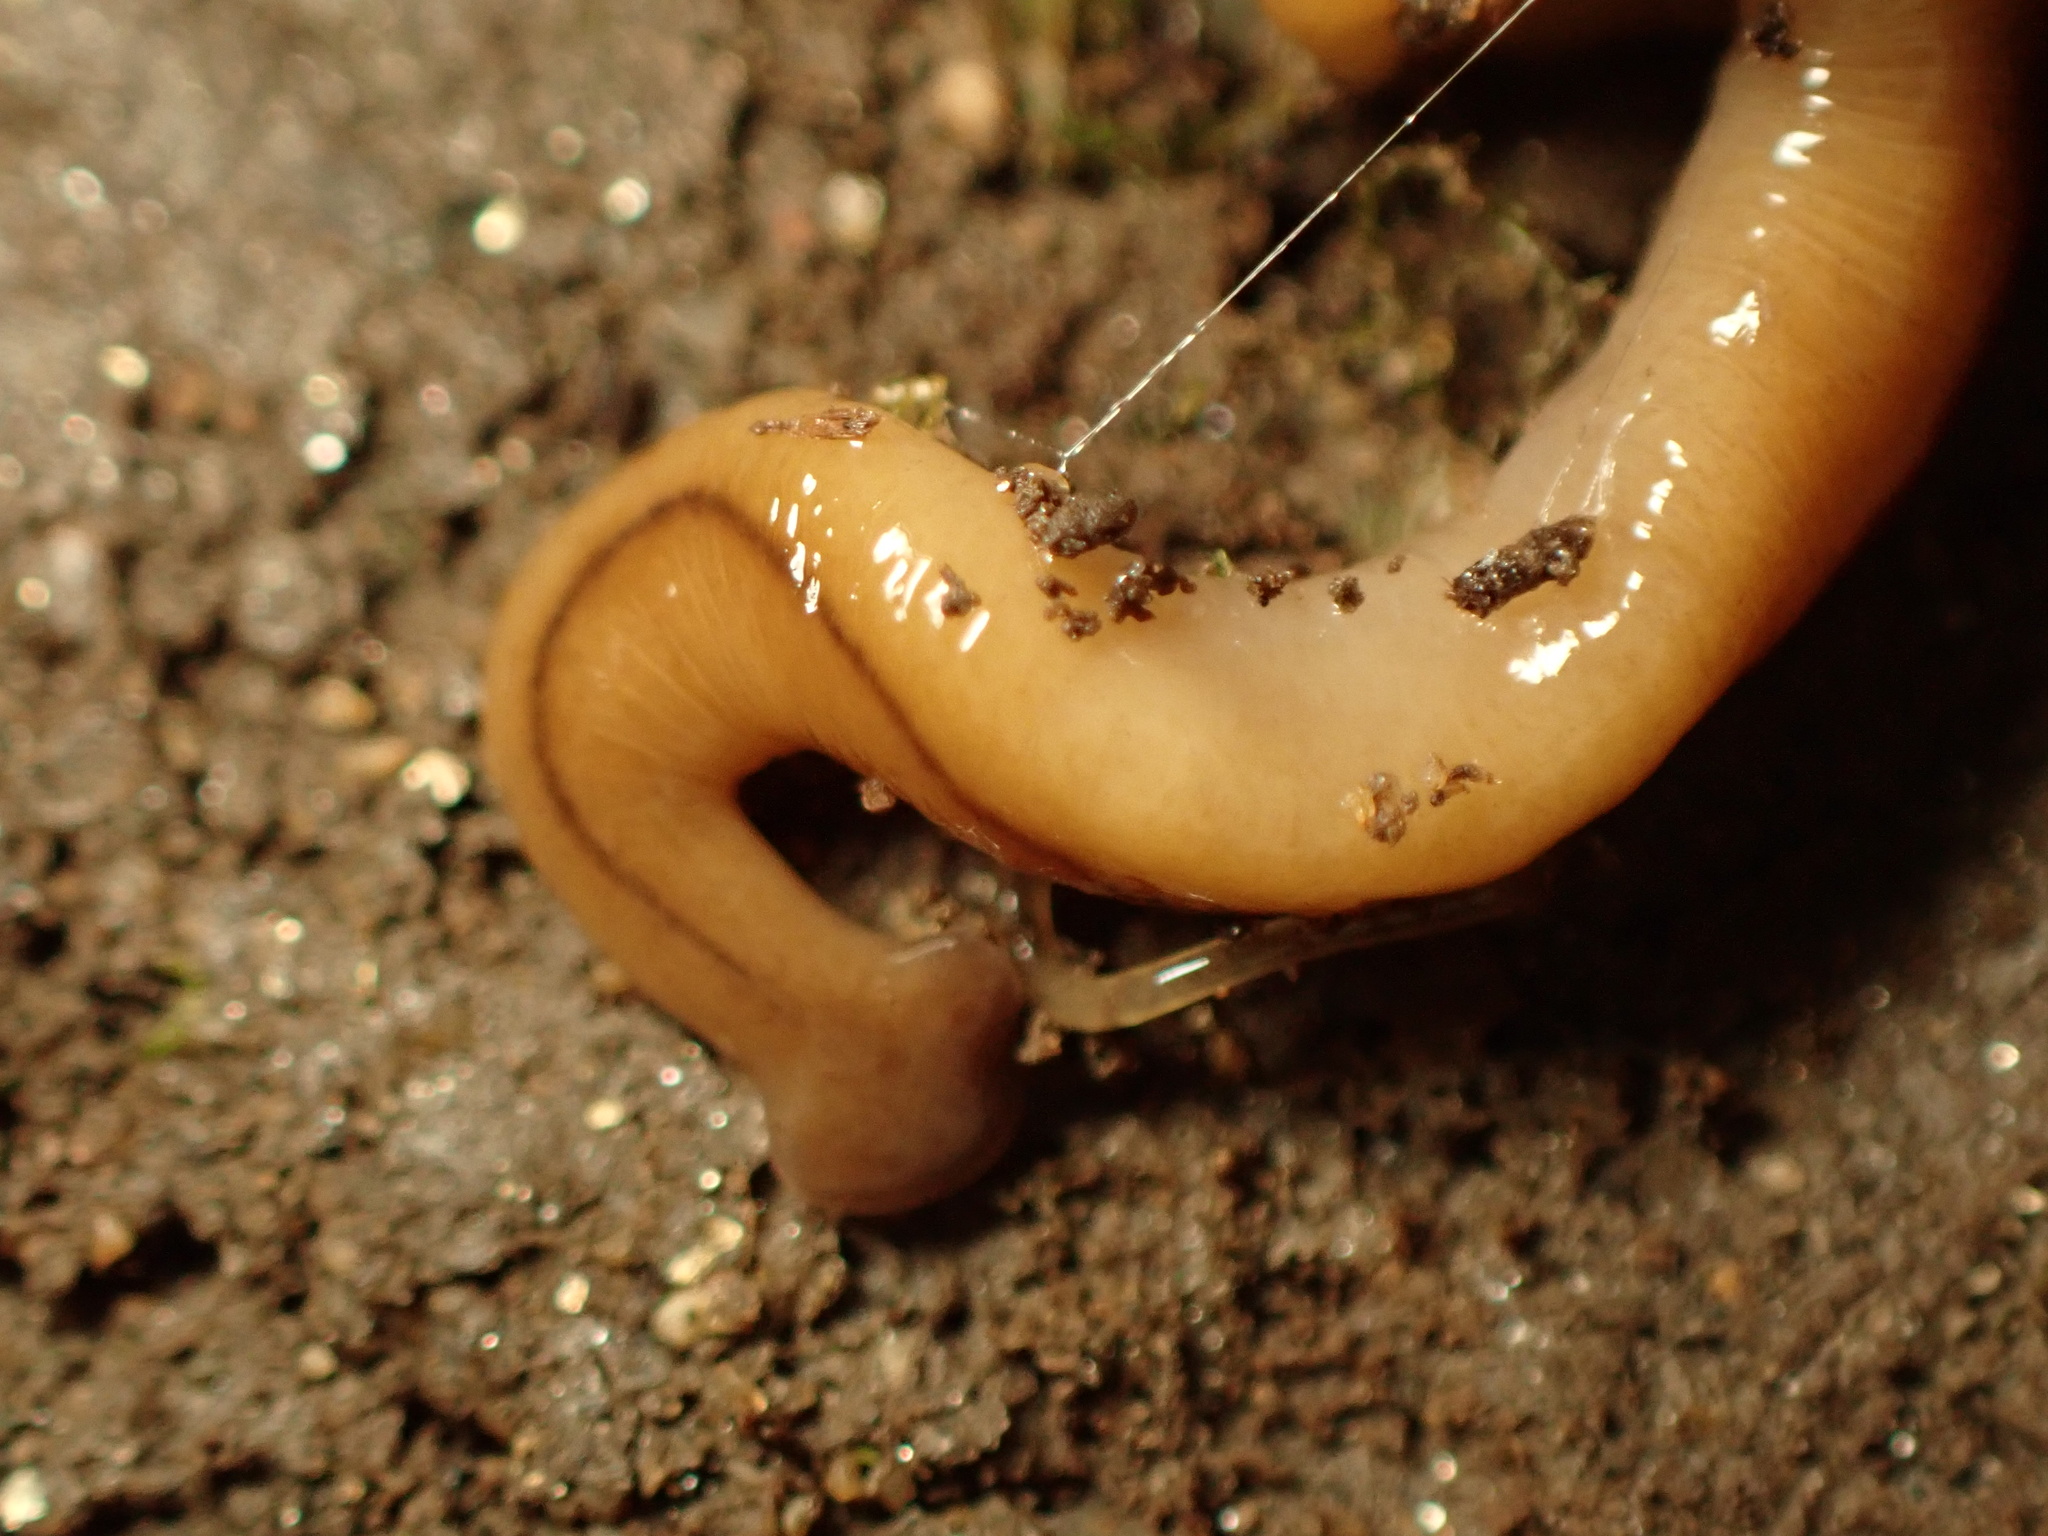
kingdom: Animalia
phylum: Platyhelminthes
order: Tricladida
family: Geoplanidae
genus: Bipalium
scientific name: Bipalium adventitium
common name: Land planarian
